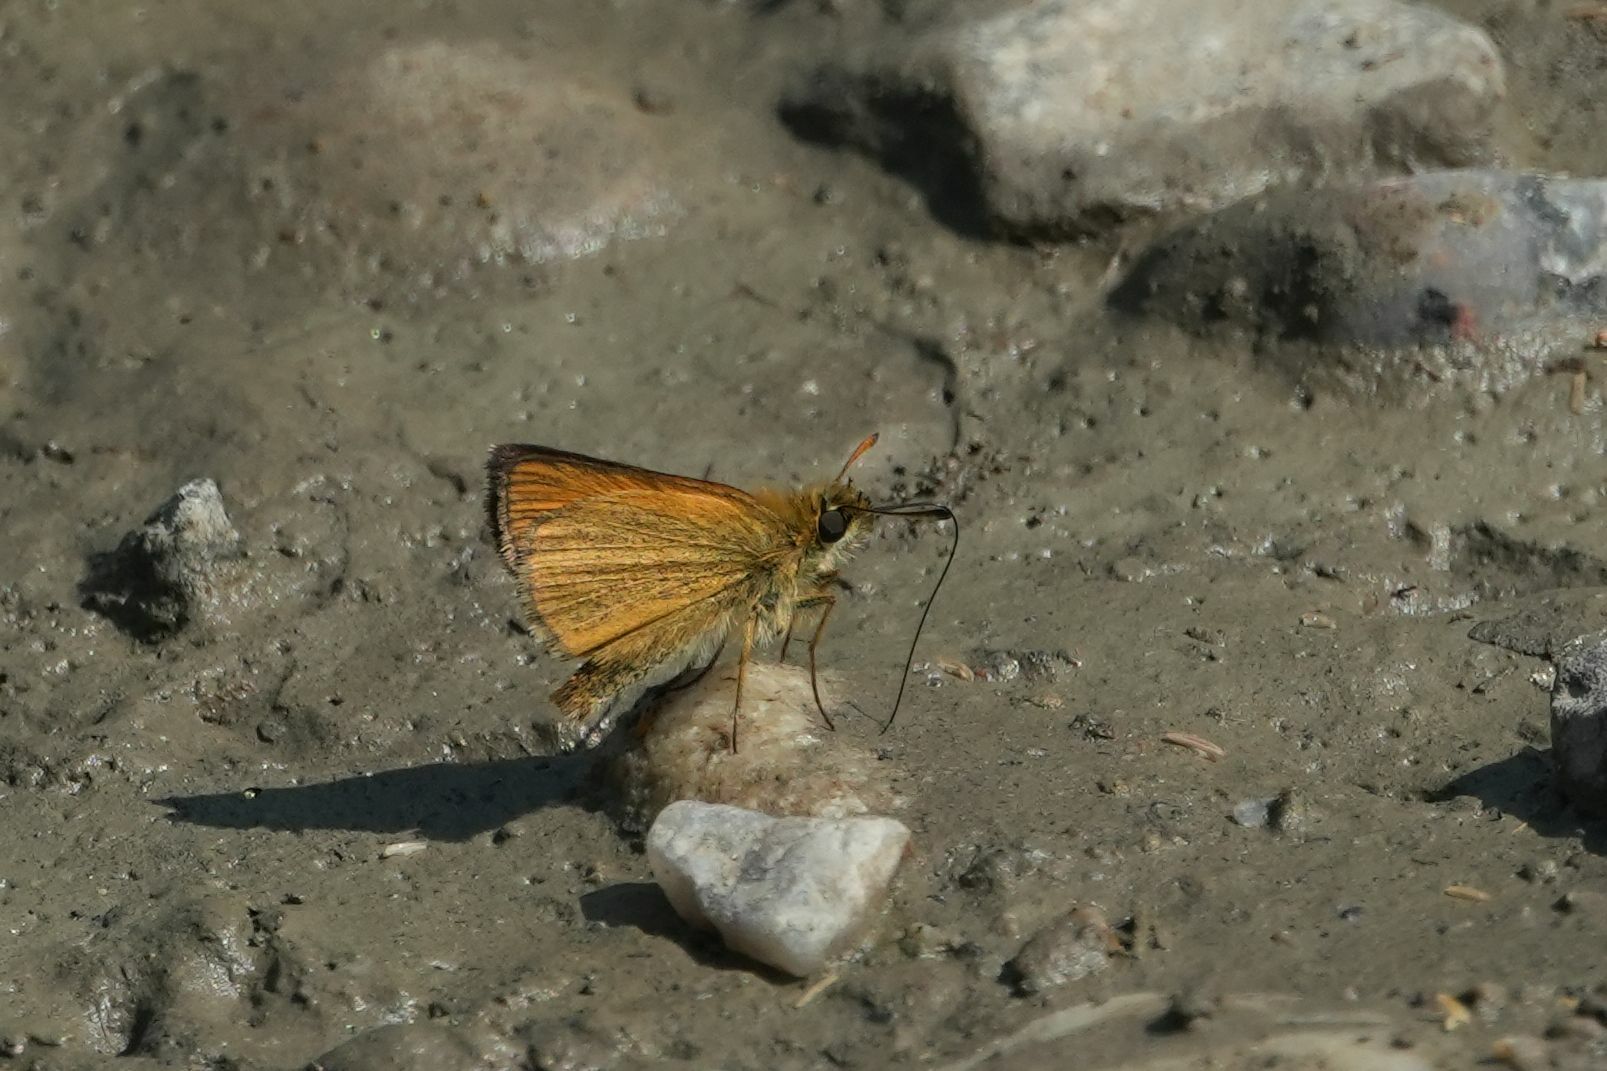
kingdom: Animalia
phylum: Arthropoda
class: Insecta
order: Lepidoptera
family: Hesperiidae
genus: Thymelicus
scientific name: Thymelicus lineola
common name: Essex skipper
